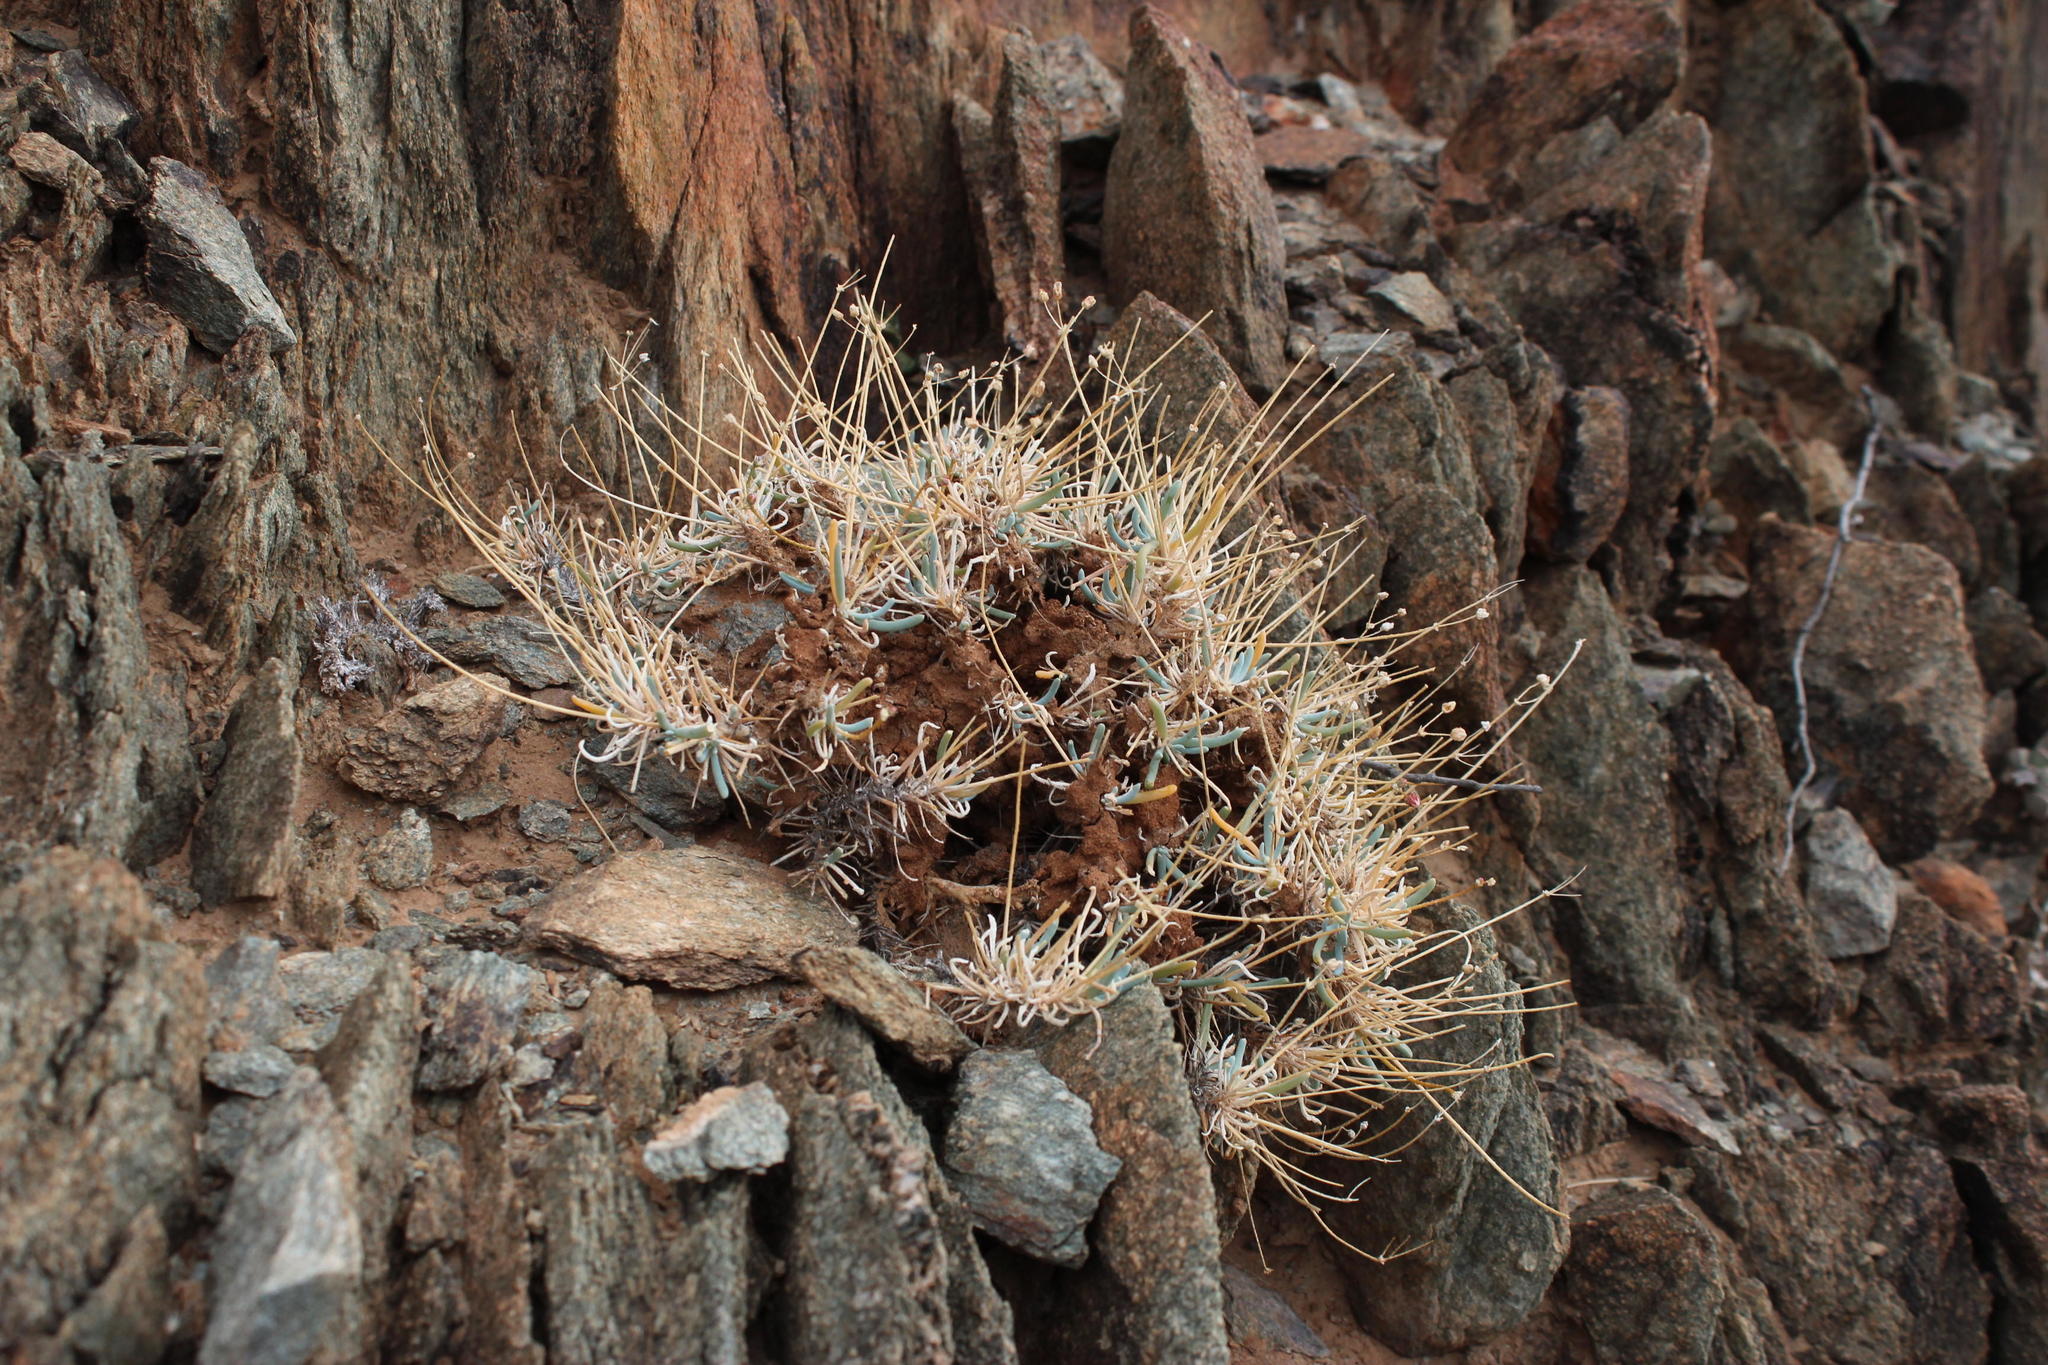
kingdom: Plantae
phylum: Tracheophyta
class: Magnoliopsida
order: Caryophyllales
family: Kewaceae
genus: Kewa
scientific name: Kewa salsoloides
